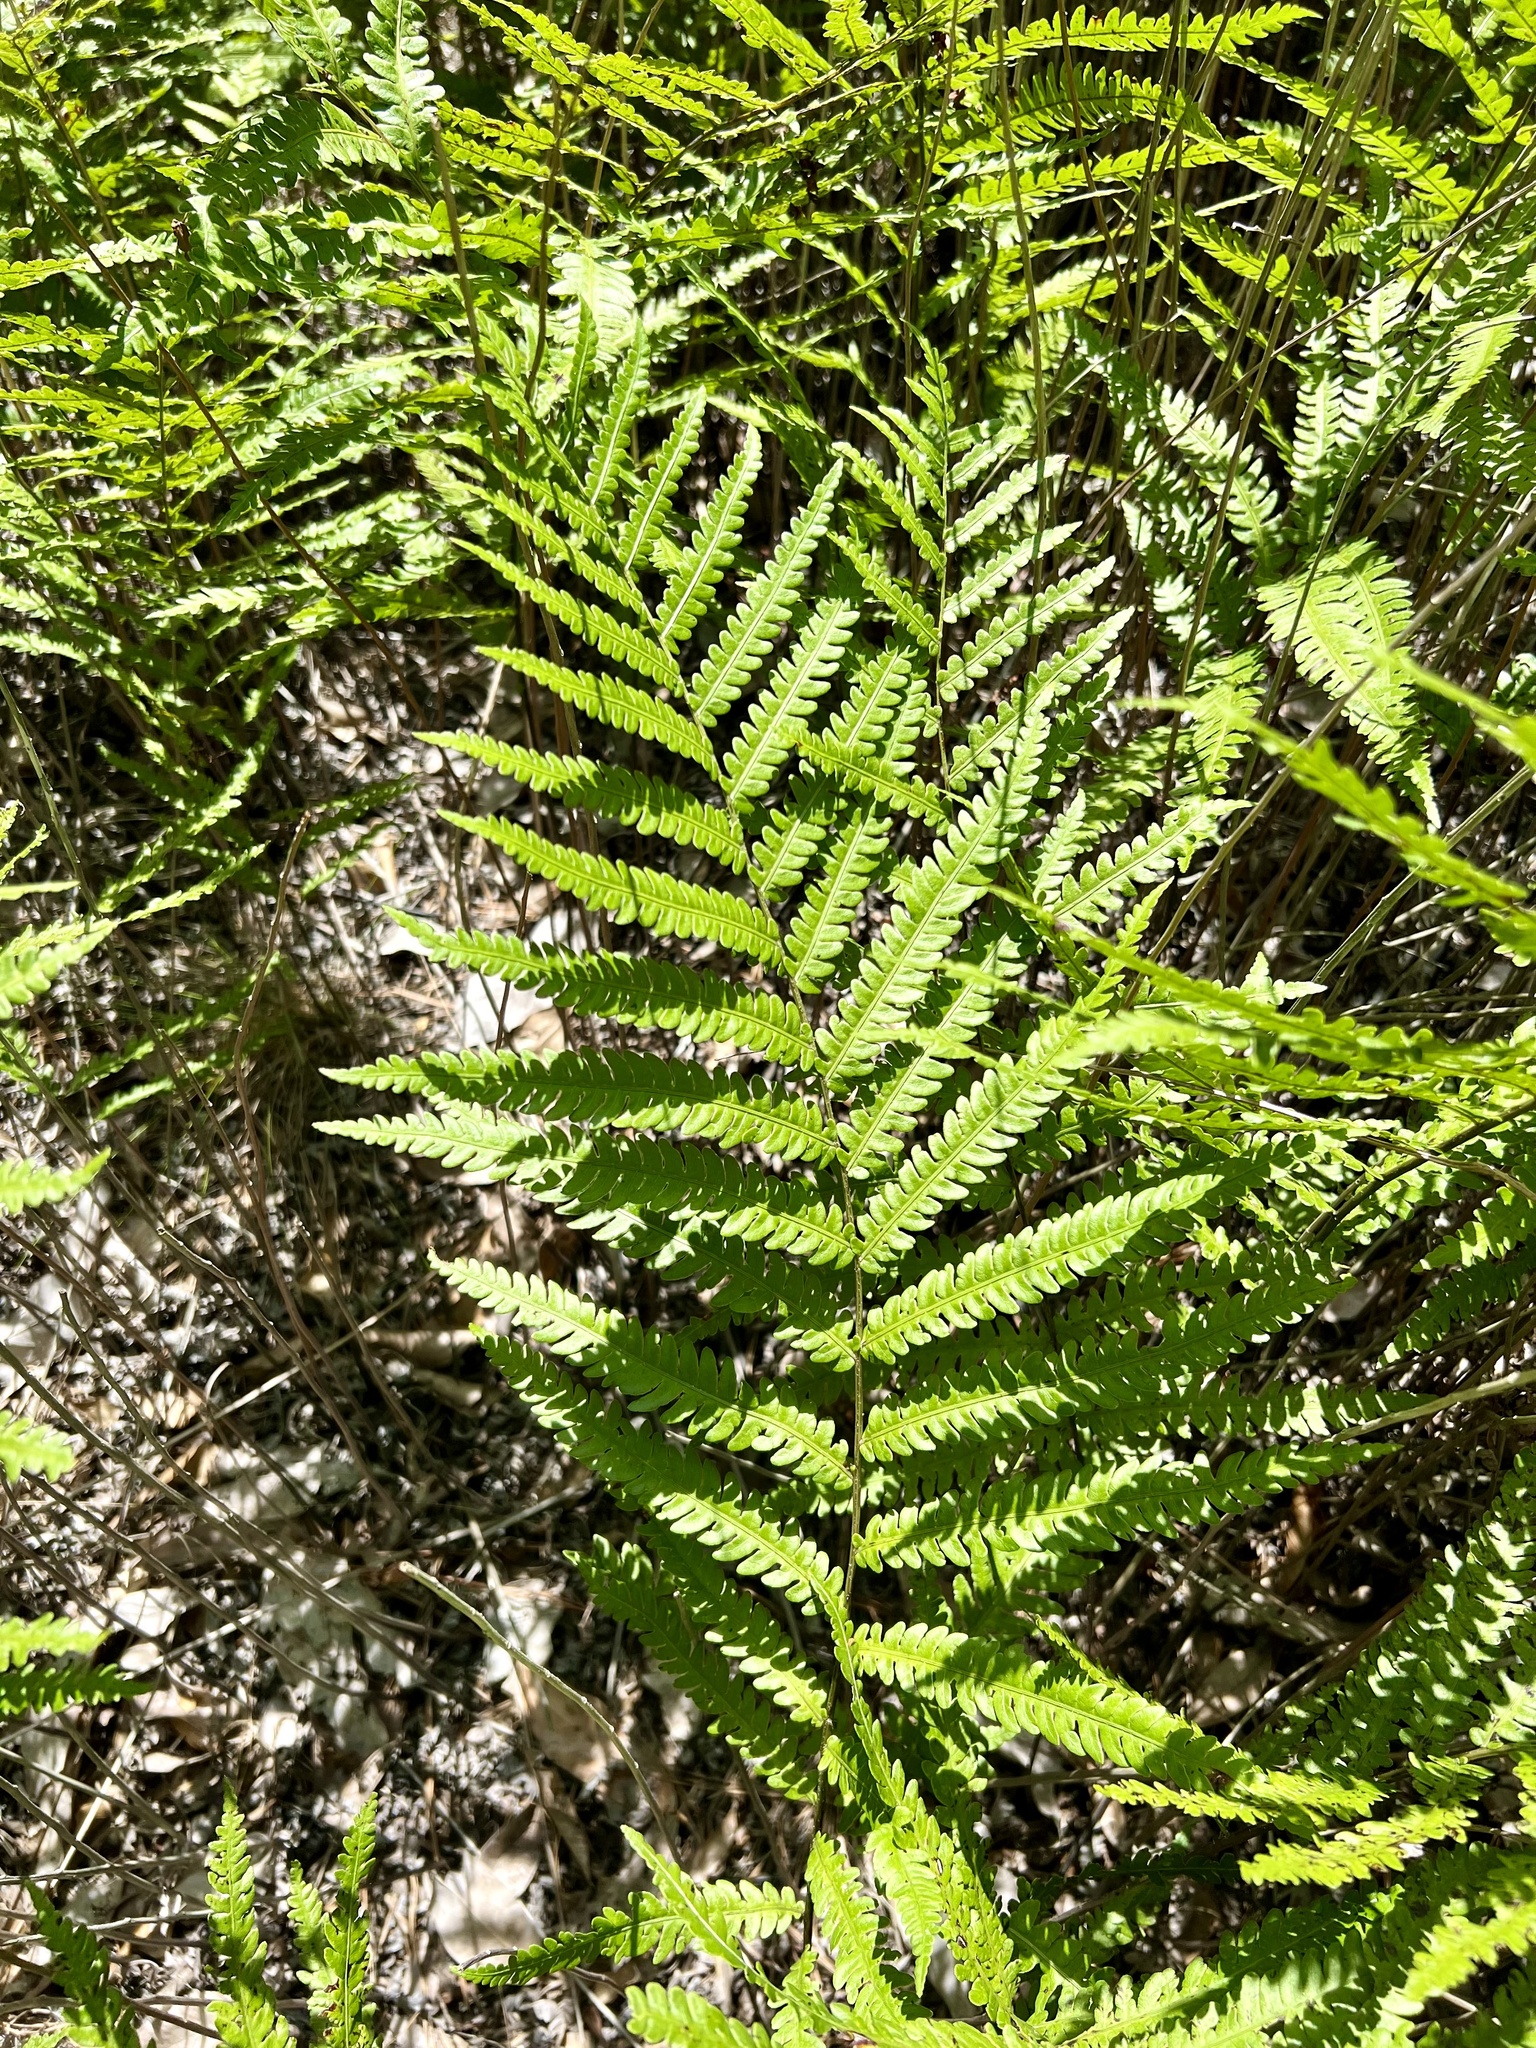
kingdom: Plantae
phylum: Tracheophyta
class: Polypodiopsida
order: Polypodiales
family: Blechnaceae
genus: Anchistea
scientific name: Anchistea virginica
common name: Virginia chain fern
